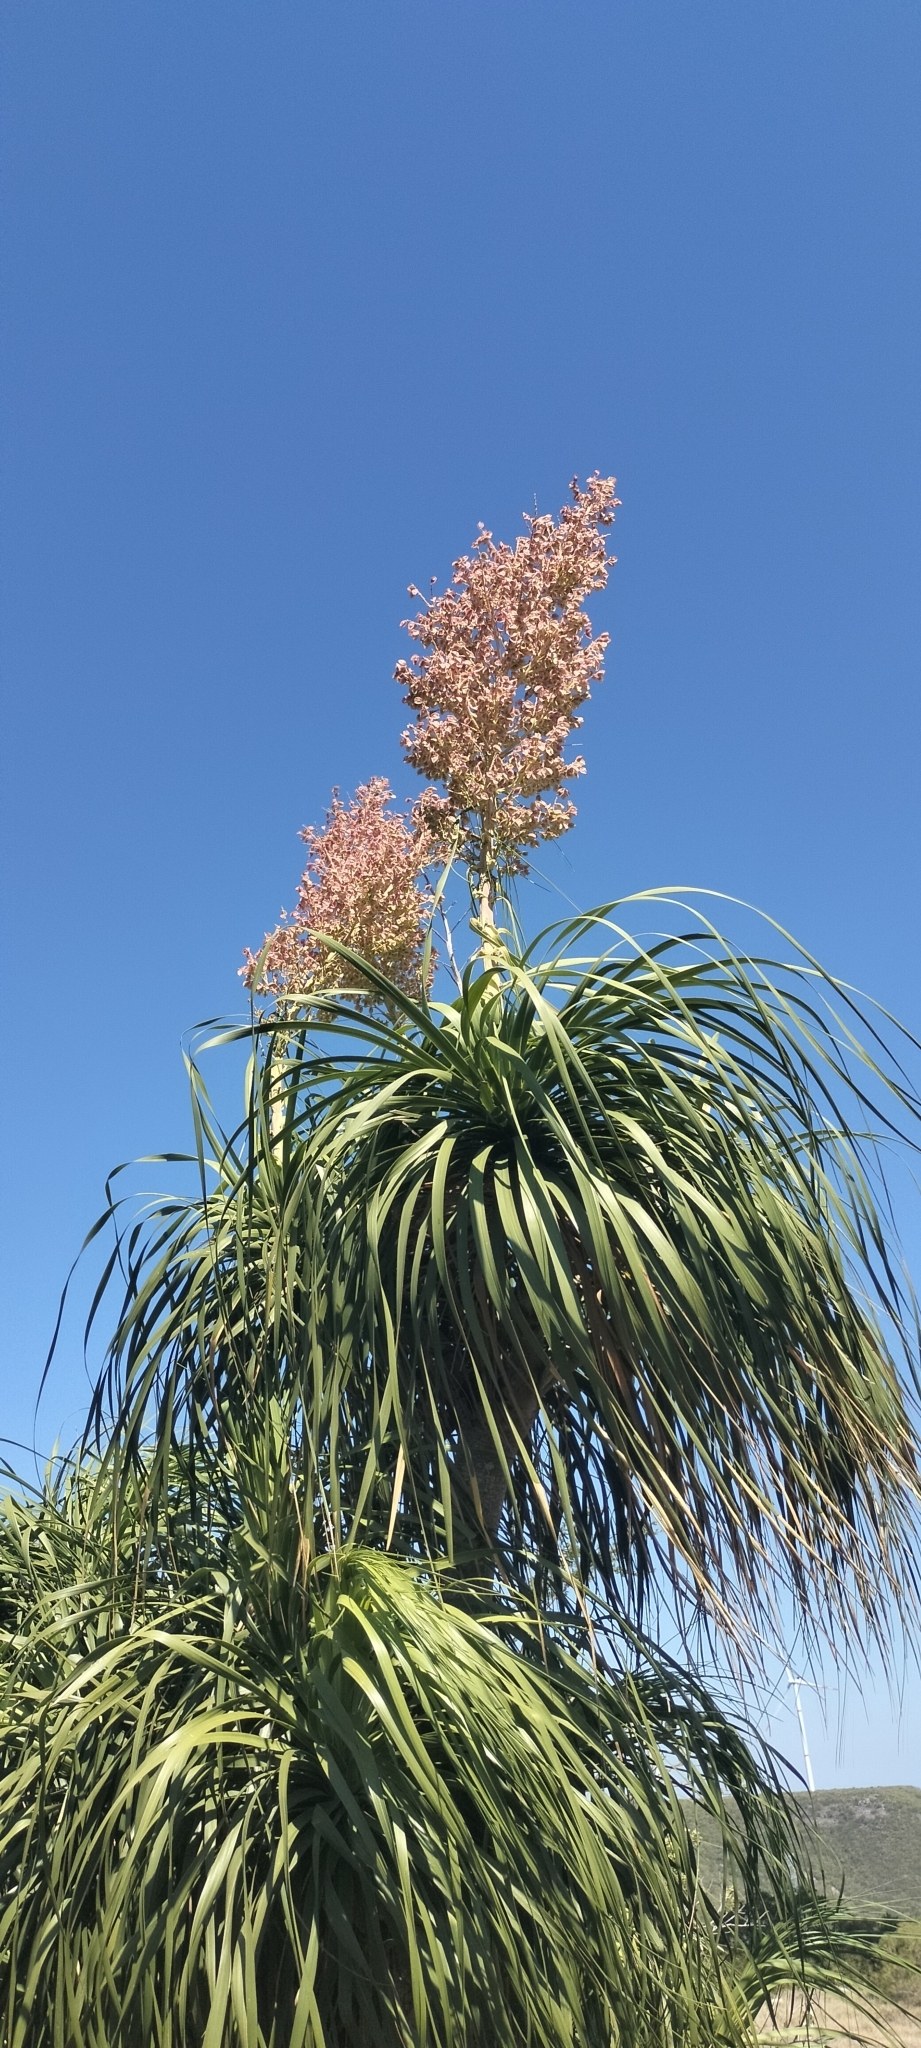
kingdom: Plantae
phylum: Tracheophyta
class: Liliopsida
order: Asparagales
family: Asparagaceae
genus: Beaucarnea
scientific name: Beaucarnea recurvata
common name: Stripy  ponytail
